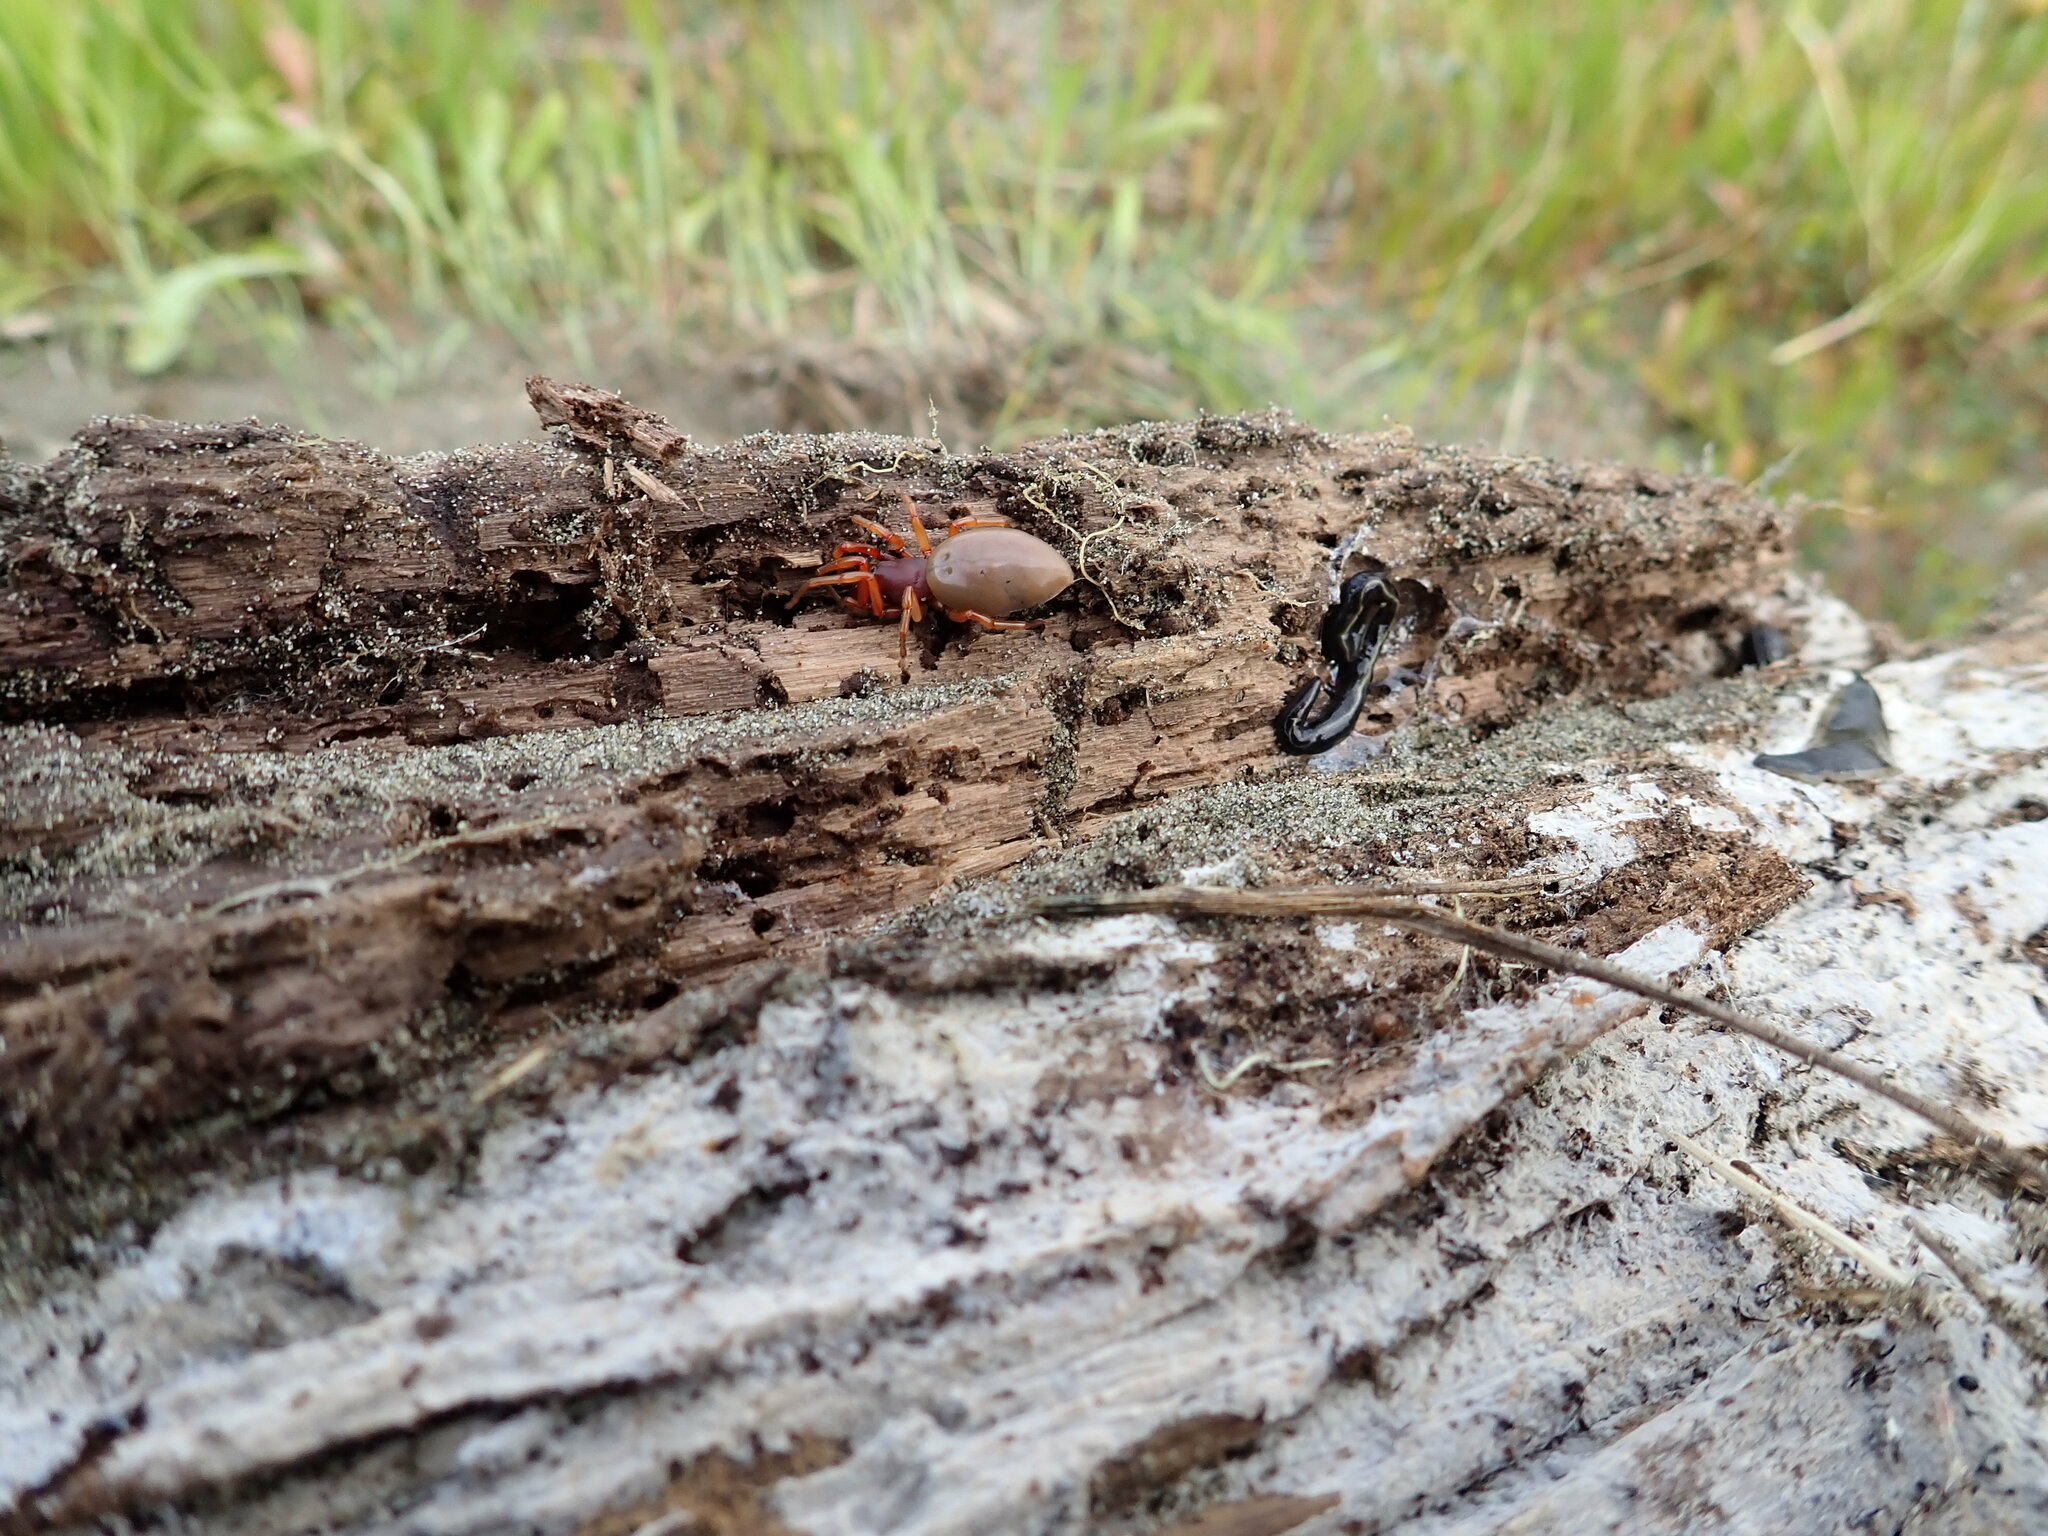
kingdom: Animalia
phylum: Arthropoda
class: Arachnida
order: Araneae
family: Dysderidae
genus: Dysdera
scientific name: Dysdera crocata
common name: Woodlouse spider
